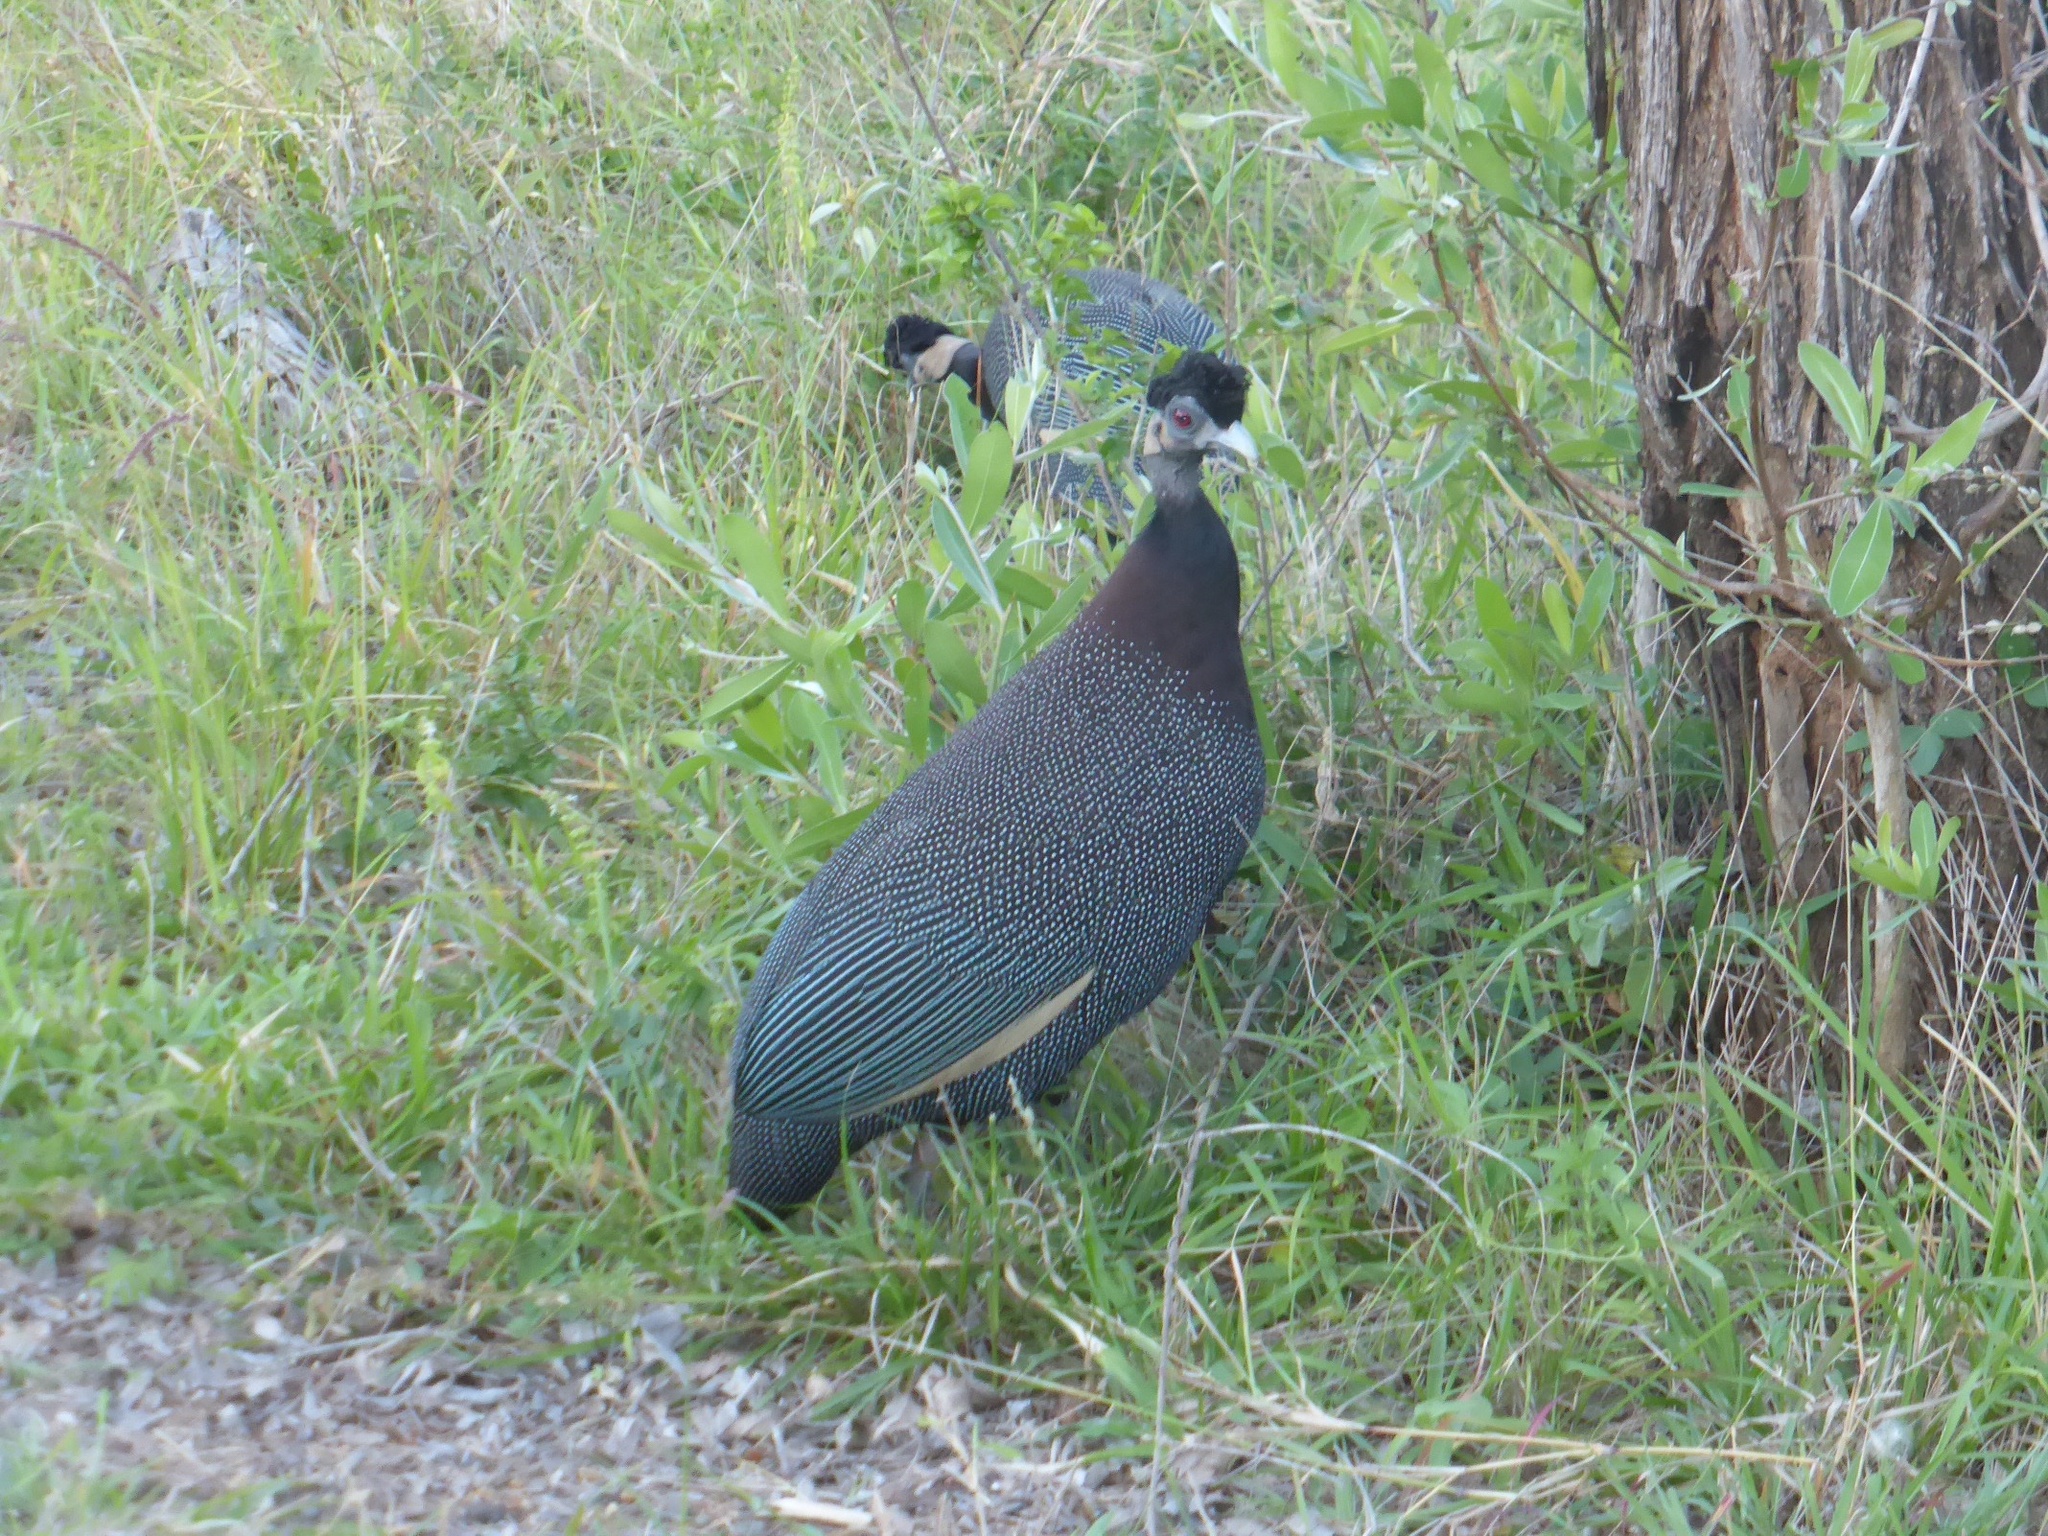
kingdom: Animalia
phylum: Chordata
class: Aves
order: Galliformes
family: Numididae
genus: Guttera
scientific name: Guttera pucherani
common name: Crested guineafowl
